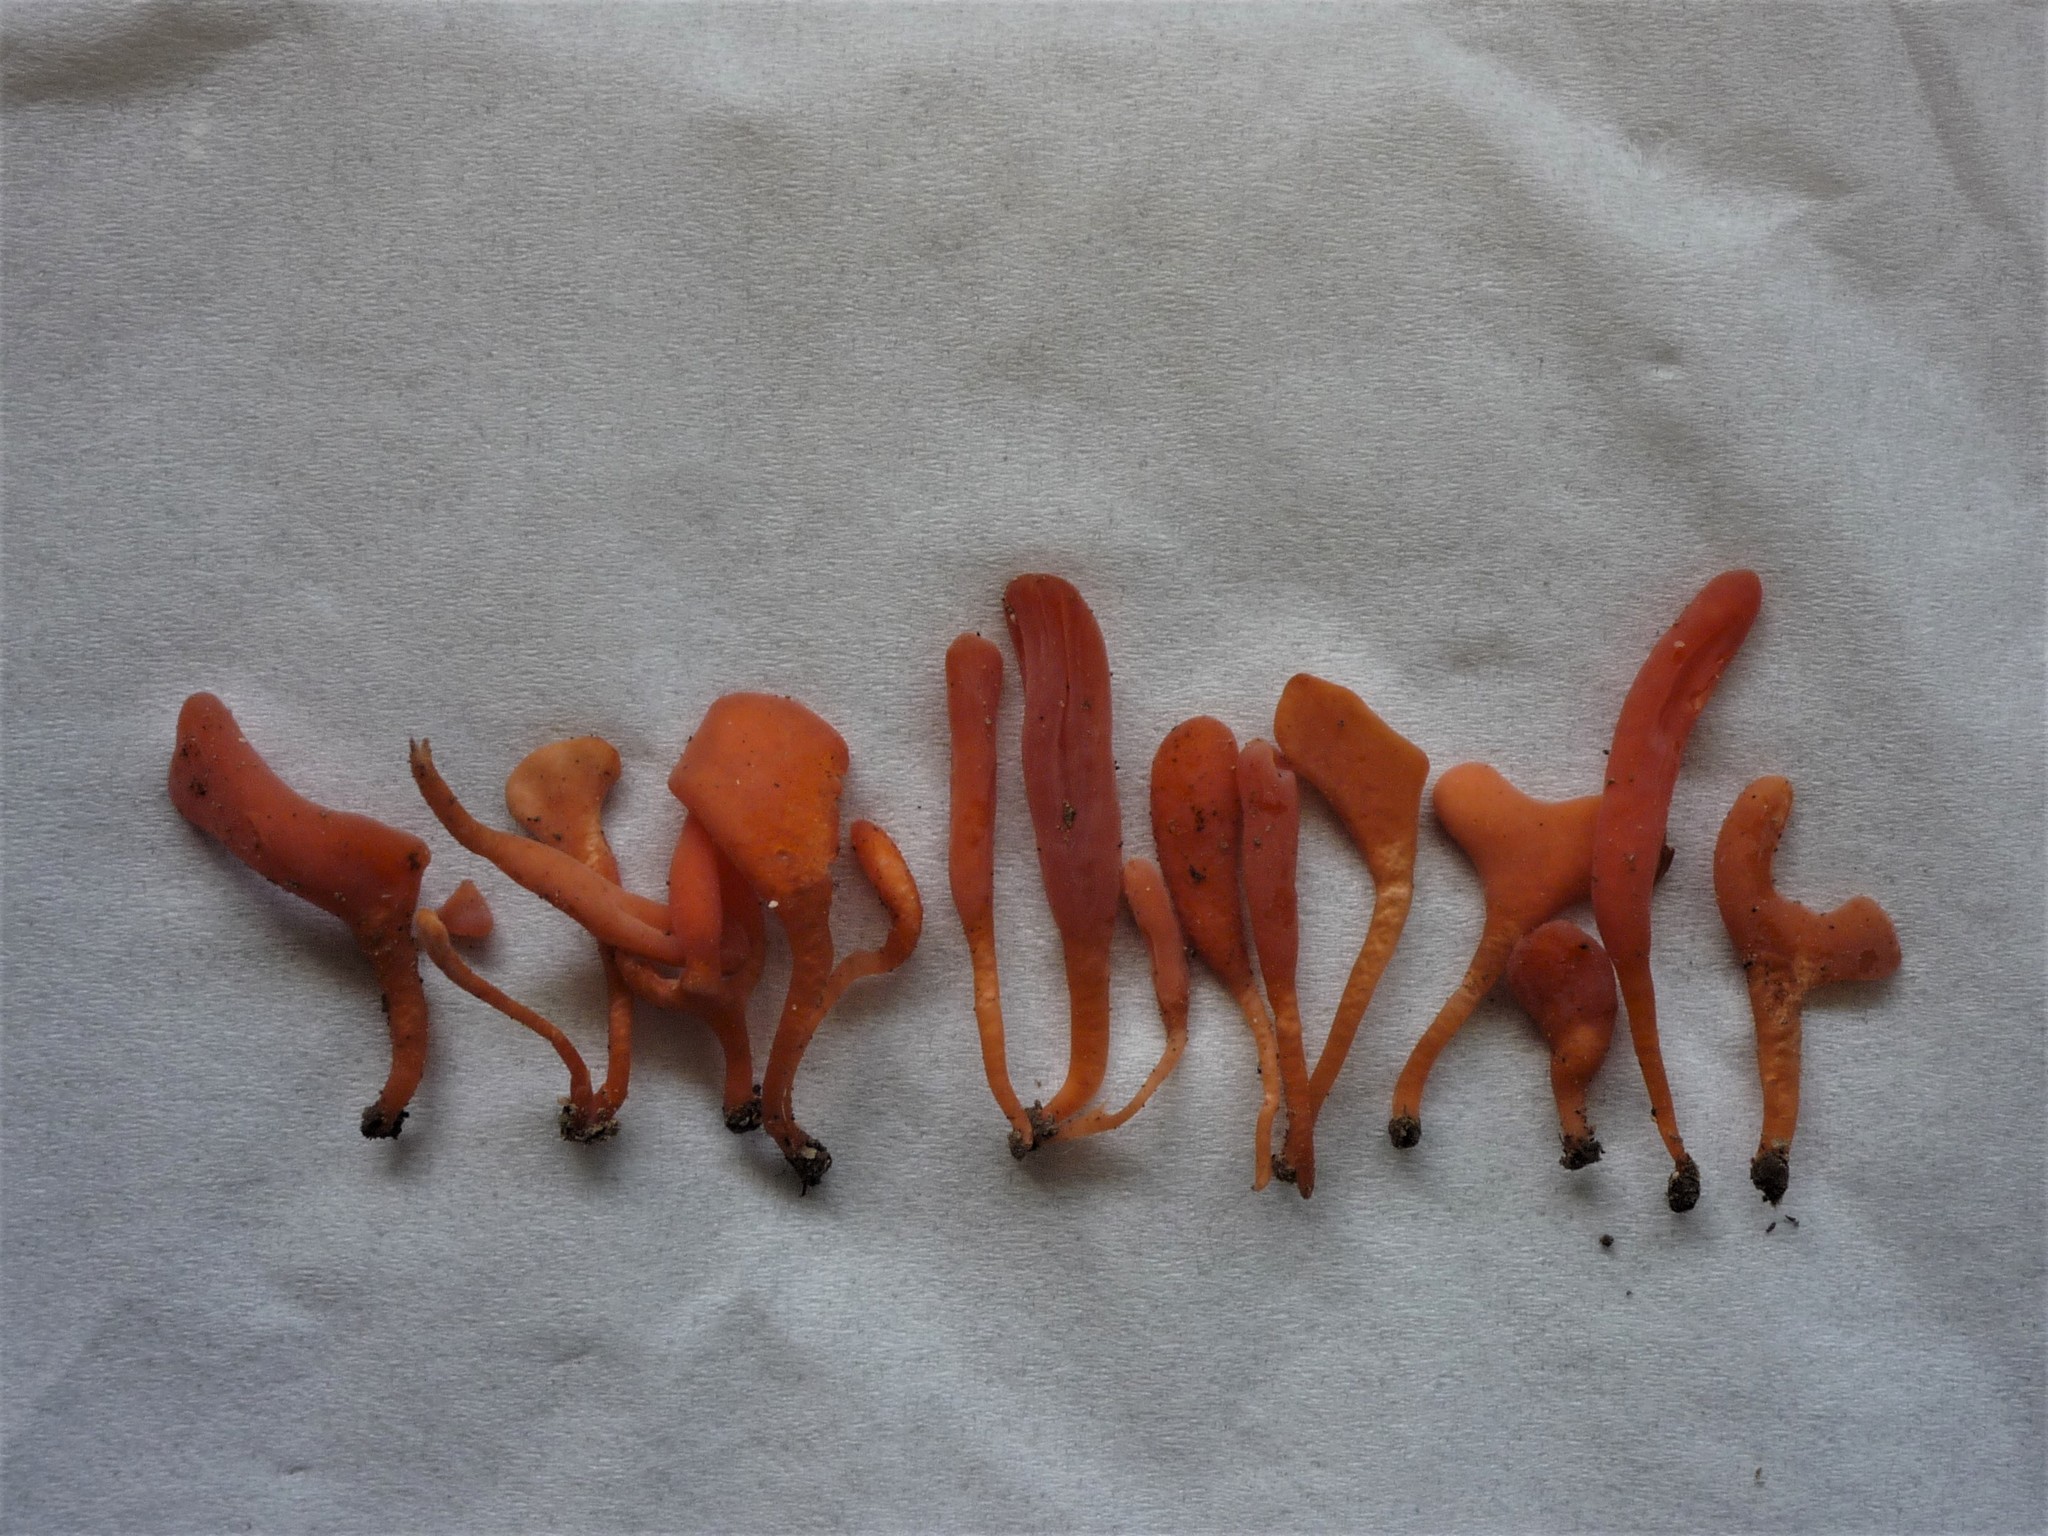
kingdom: Fungi
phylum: Basidiomycota
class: Agaricomycetes
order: Agaricales
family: Clavariaceae
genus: Clavaria
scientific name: Clavaria stegasauroides
